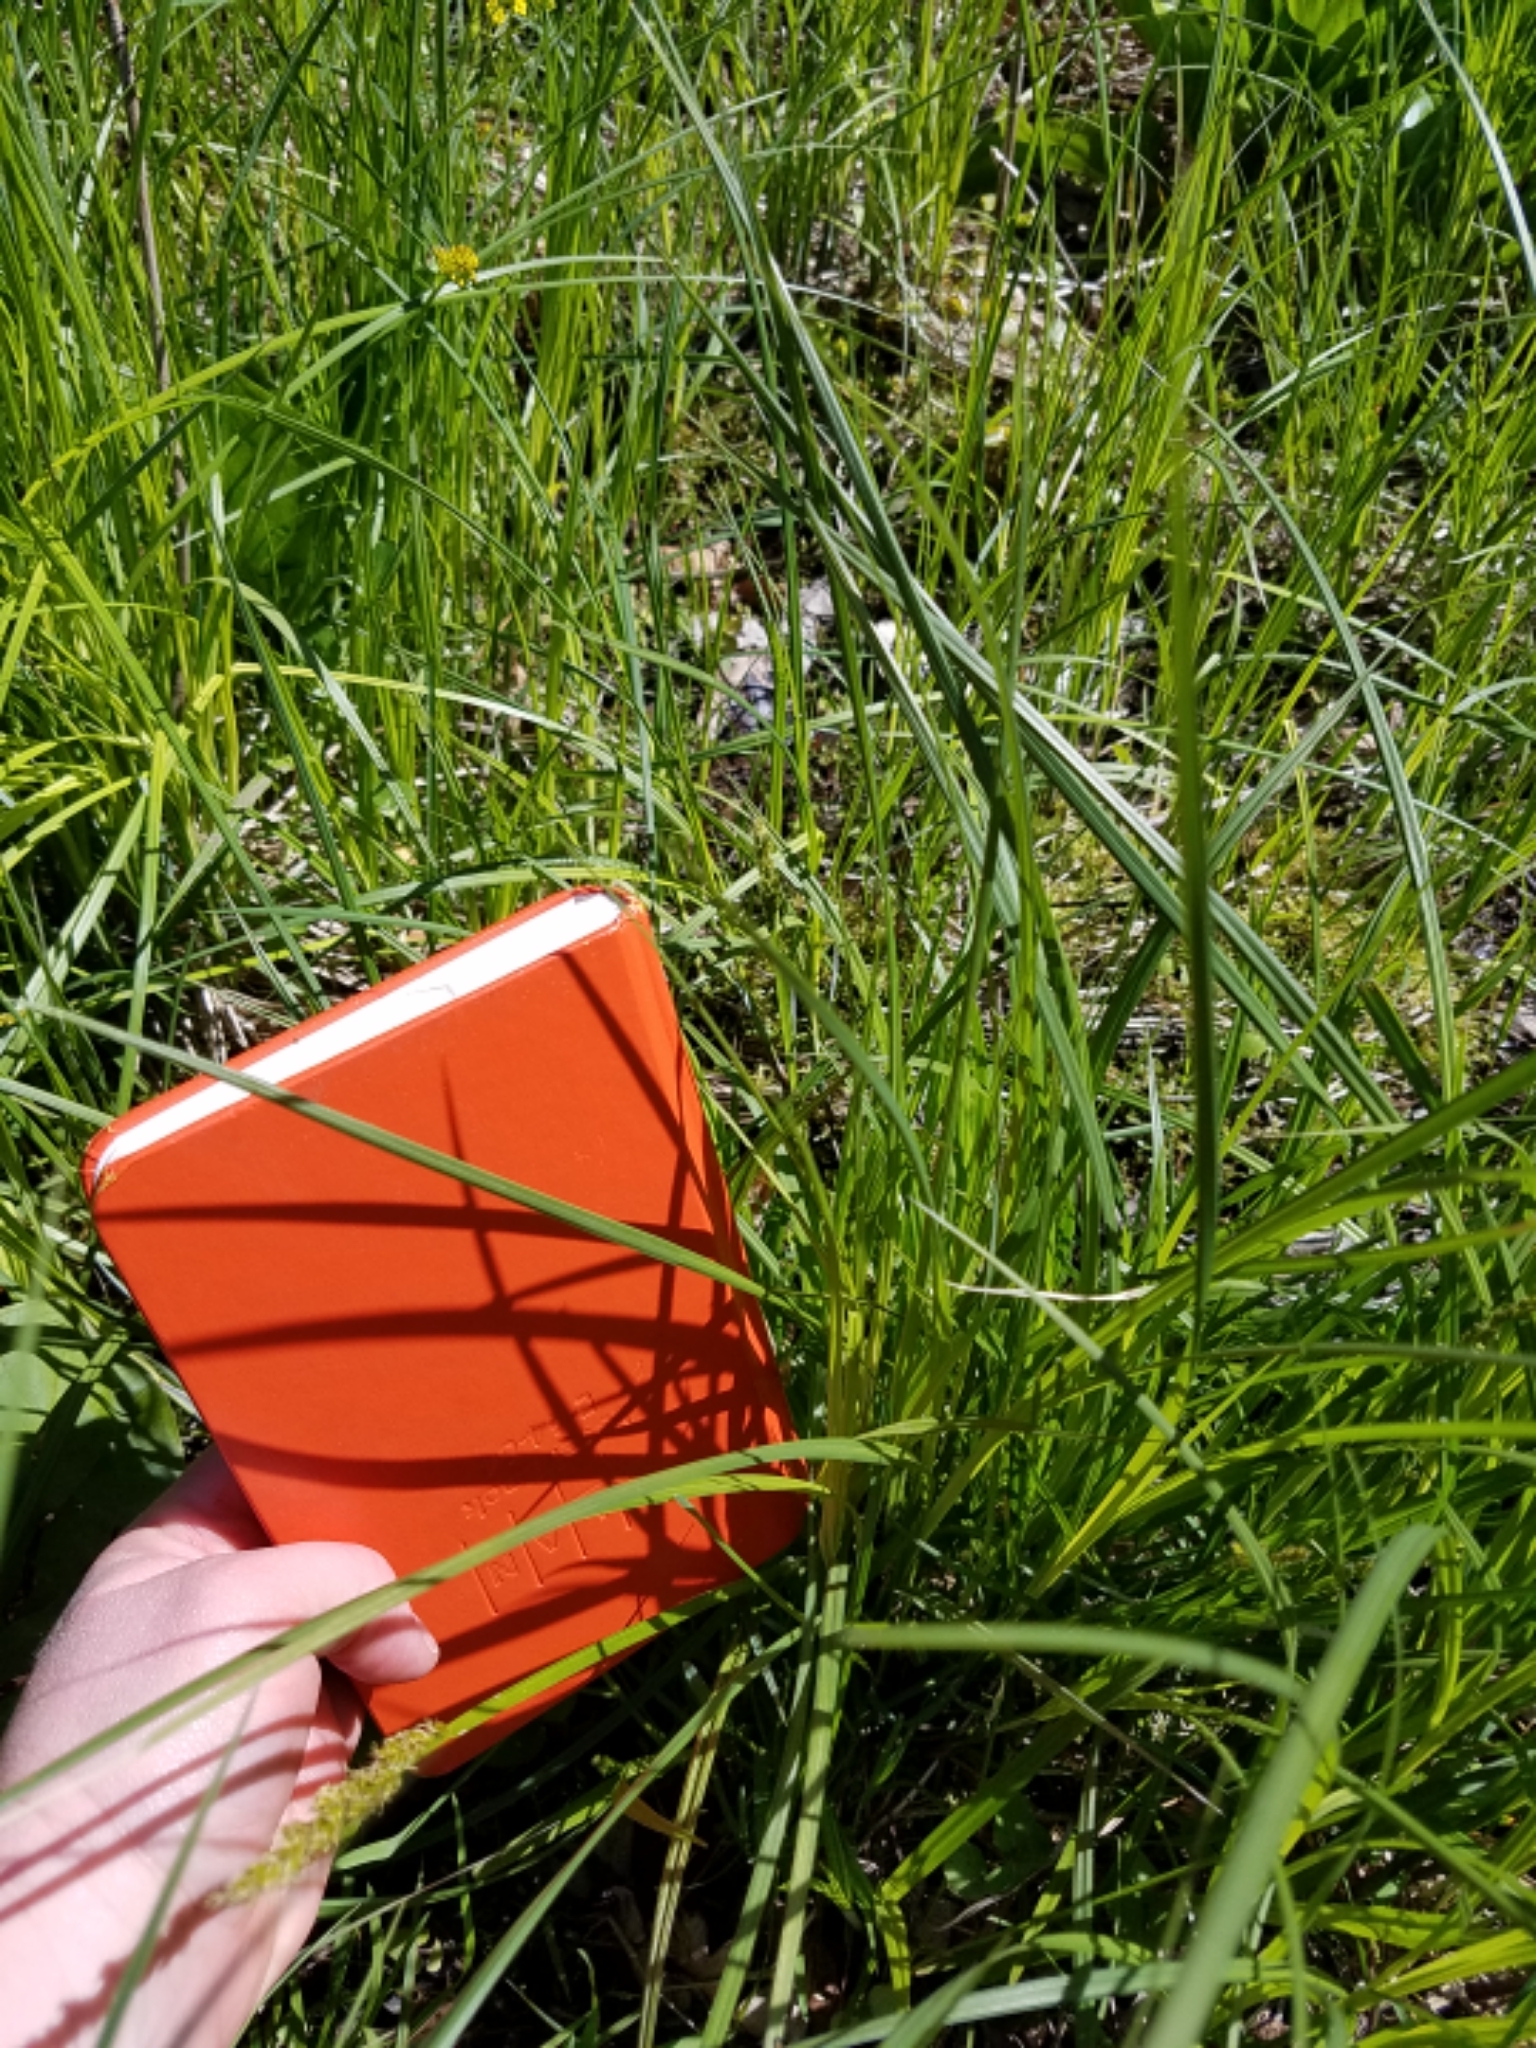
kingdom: Plantae
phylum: Tracheophyta
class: Liliopsida
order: Poales
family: Cyperaceae
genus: Carex
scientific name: Carex stipata
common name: Awl-fruited sedge
